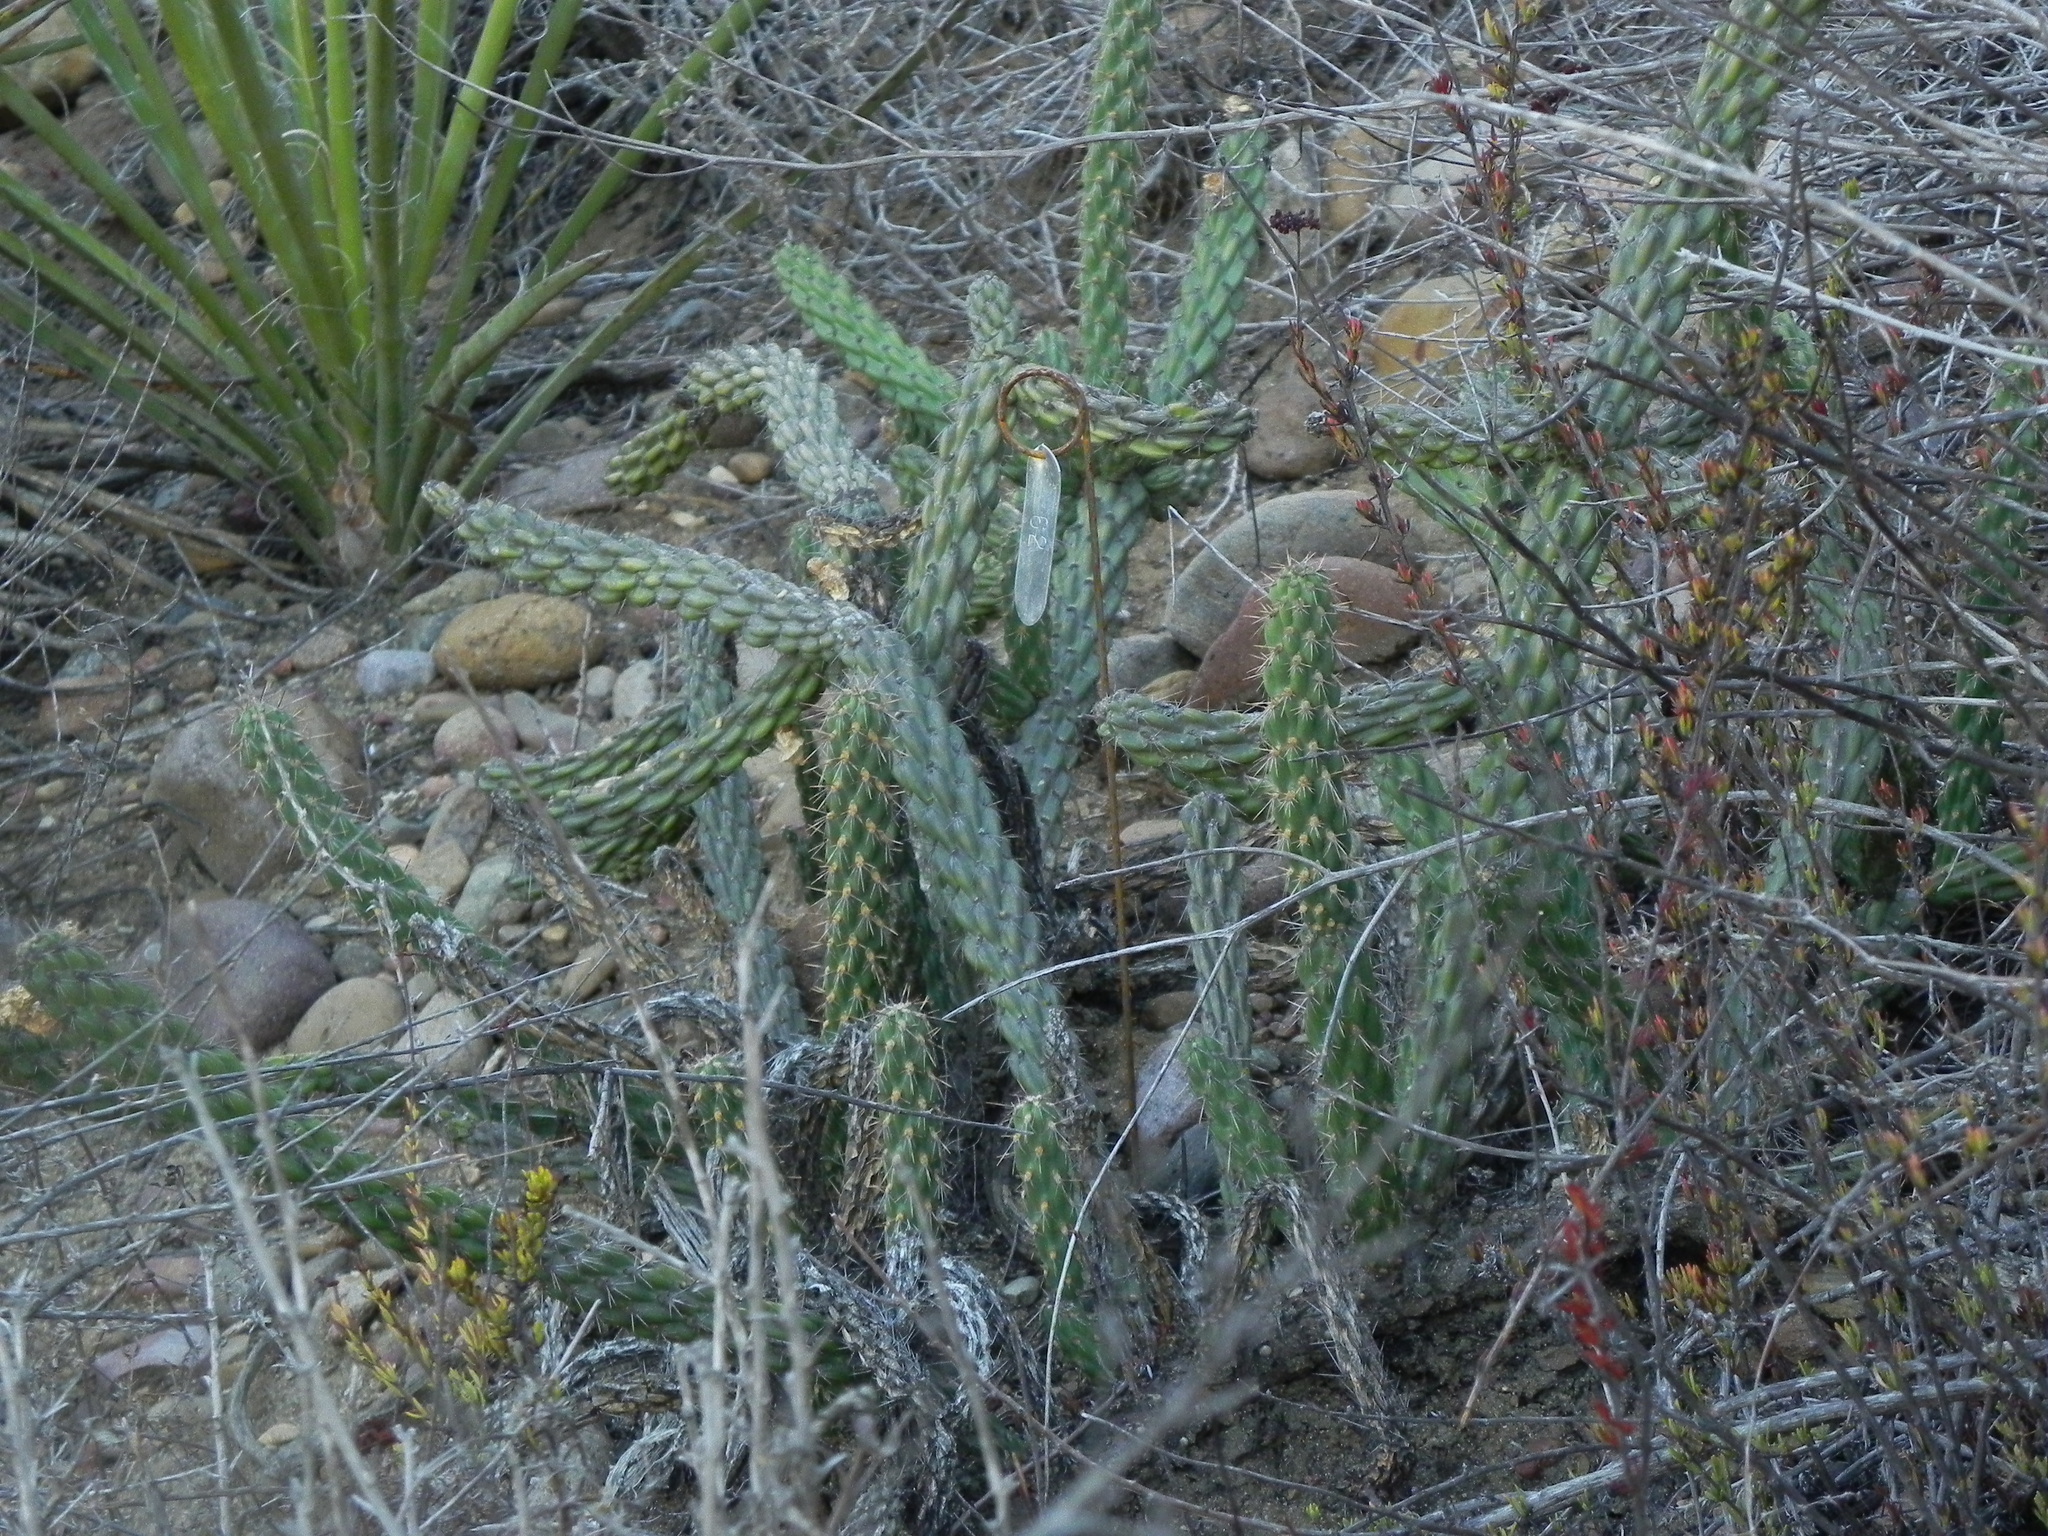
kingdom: Plantae
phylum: Tracheophyta
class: Magnoliopsida
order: Caryophyllales
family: Cactaceae
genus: Cylindropuntia
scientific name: Cylindropuntia californica
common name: Snake cholla
